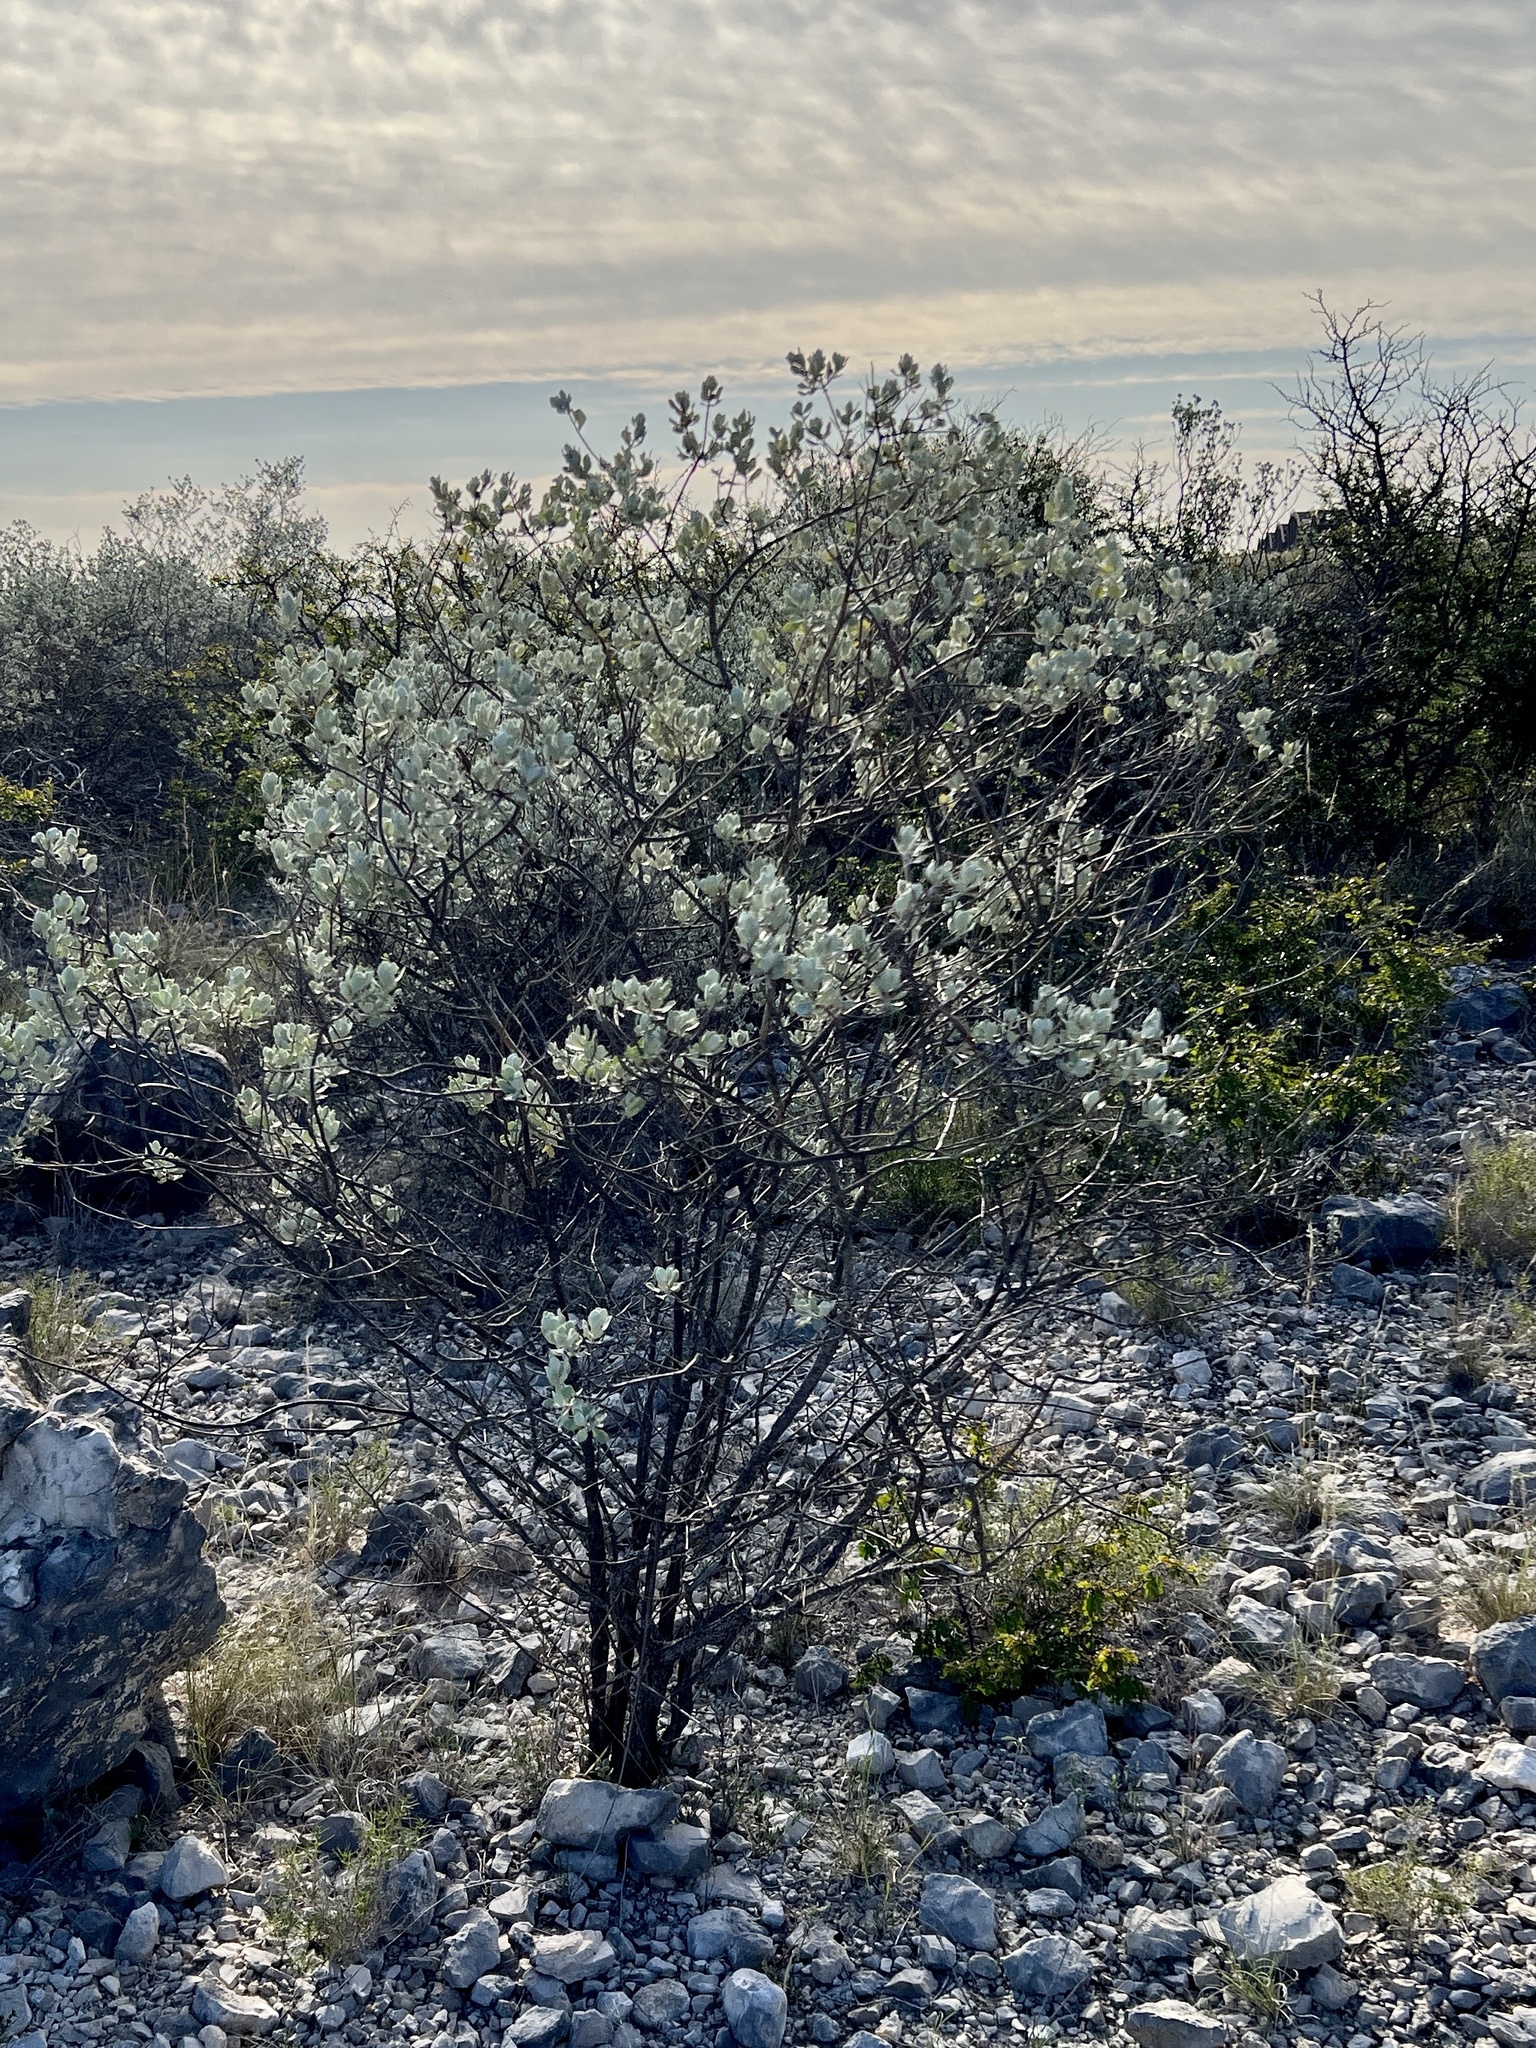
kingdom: Plantae
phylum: Tracheophyta
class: Magnoliopsida
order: Lamiales
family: Scrophulariaceae
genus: Leucophyllum
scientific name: Leucophyllum frutescens
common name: Texas silverleaf
